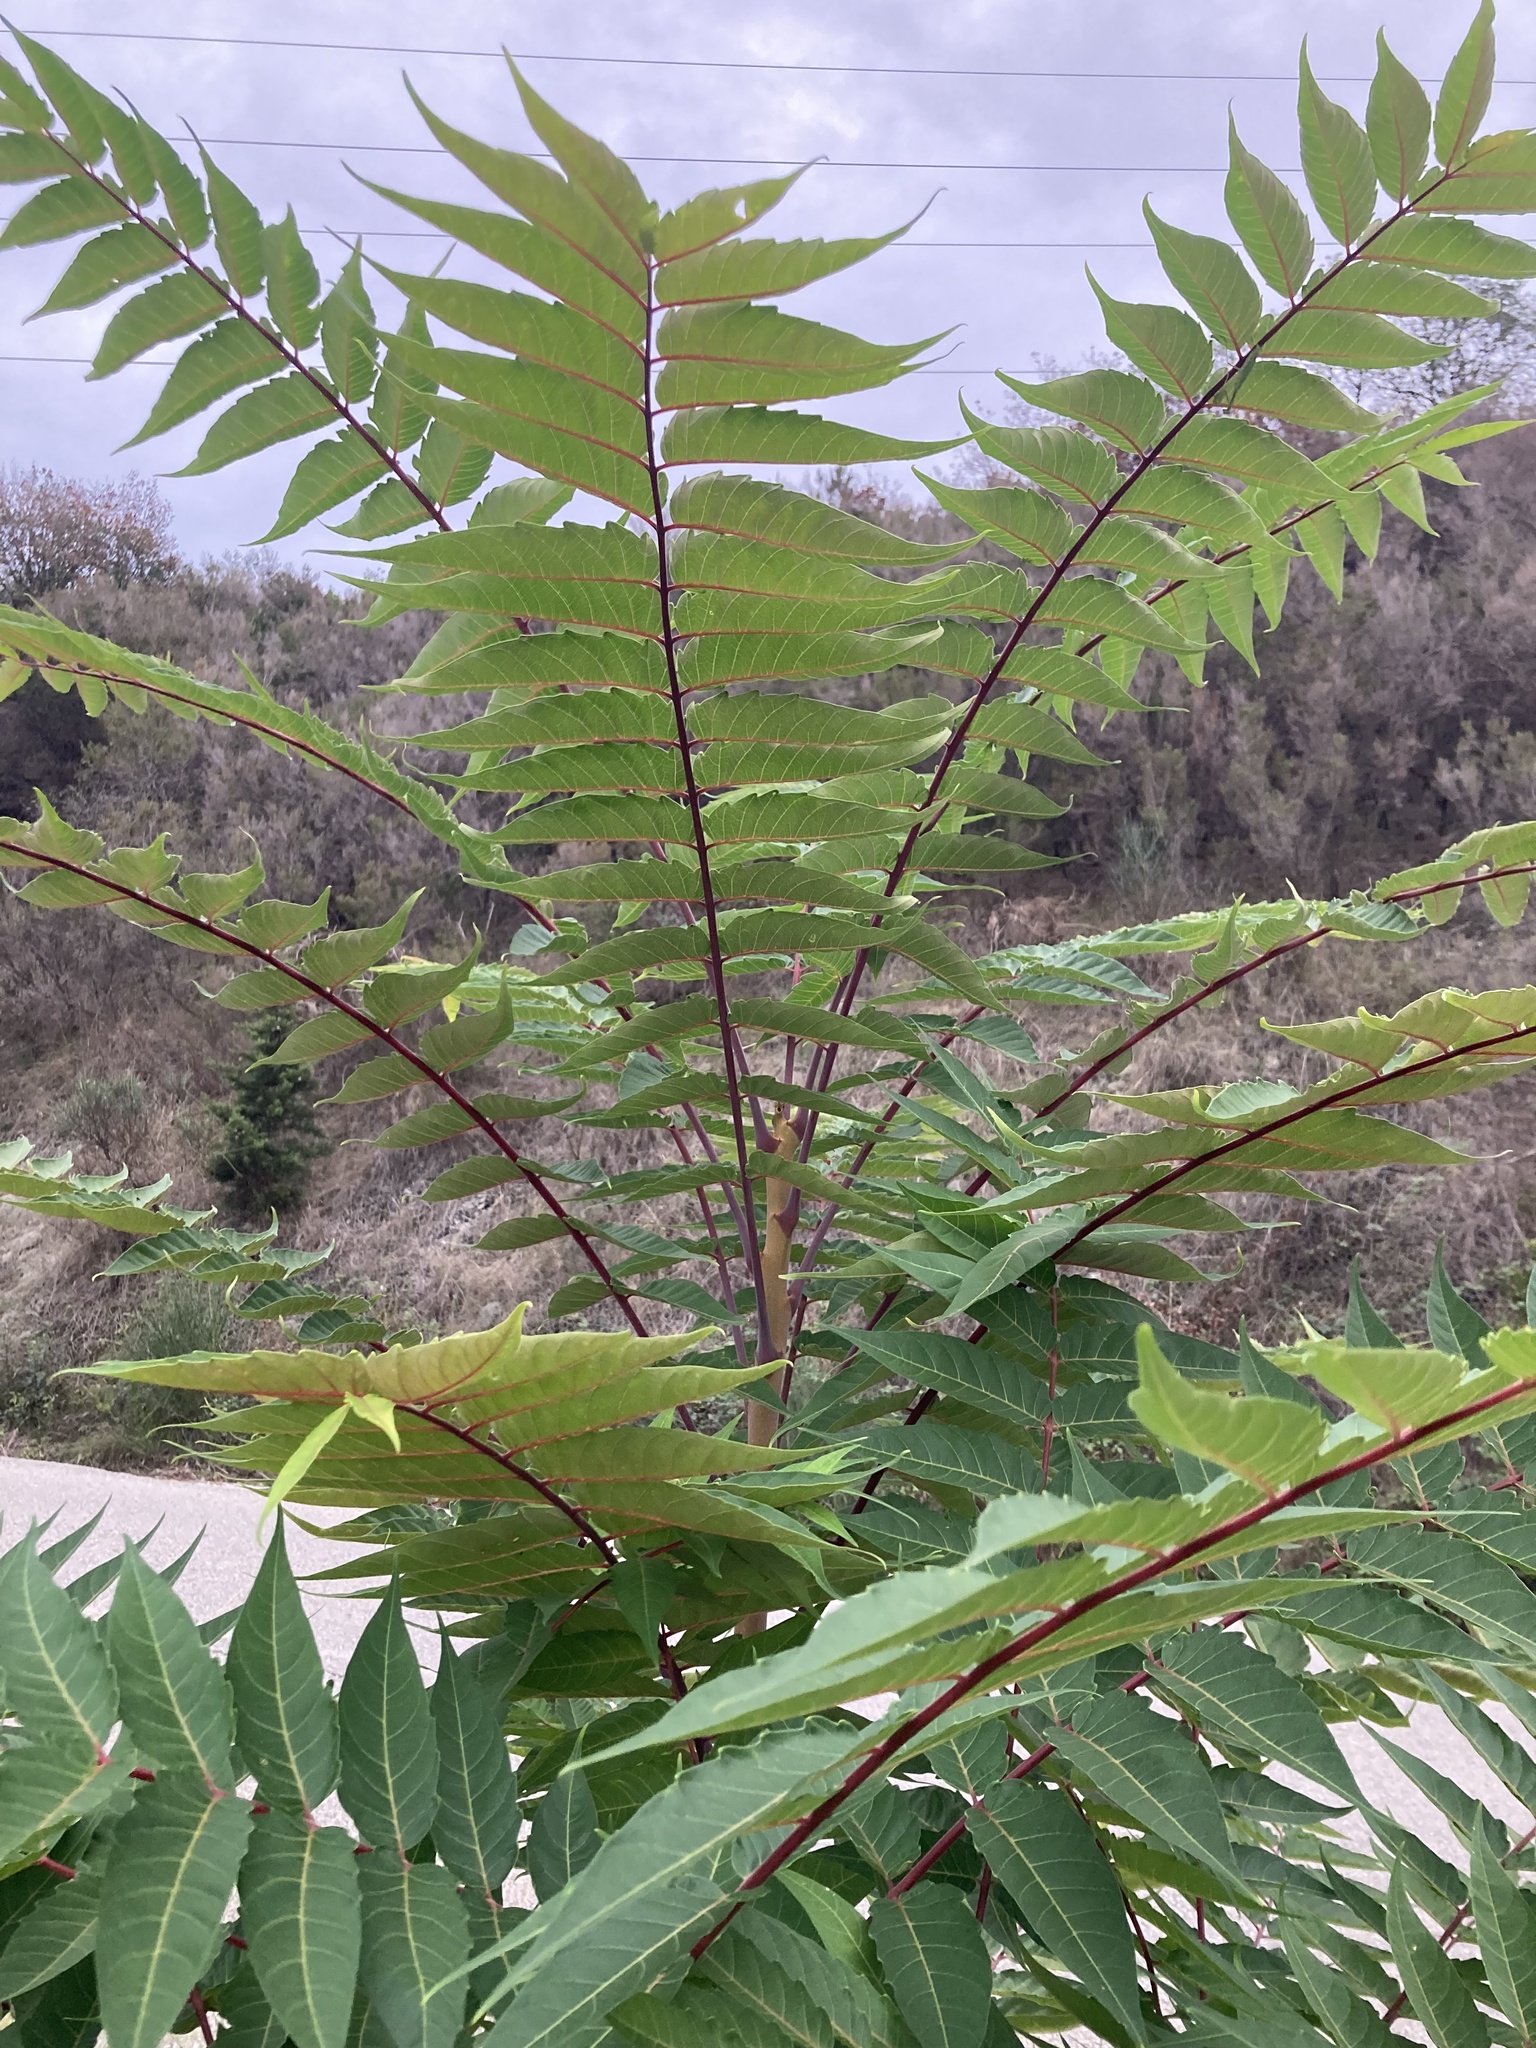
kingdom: Plantae
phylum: Tracheophyta
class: Magnoliopsida
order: Sapindales
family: Simaroubaceae
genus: Ailanthus
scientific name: Ailanthus altissima
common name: Tree-of-heaven
